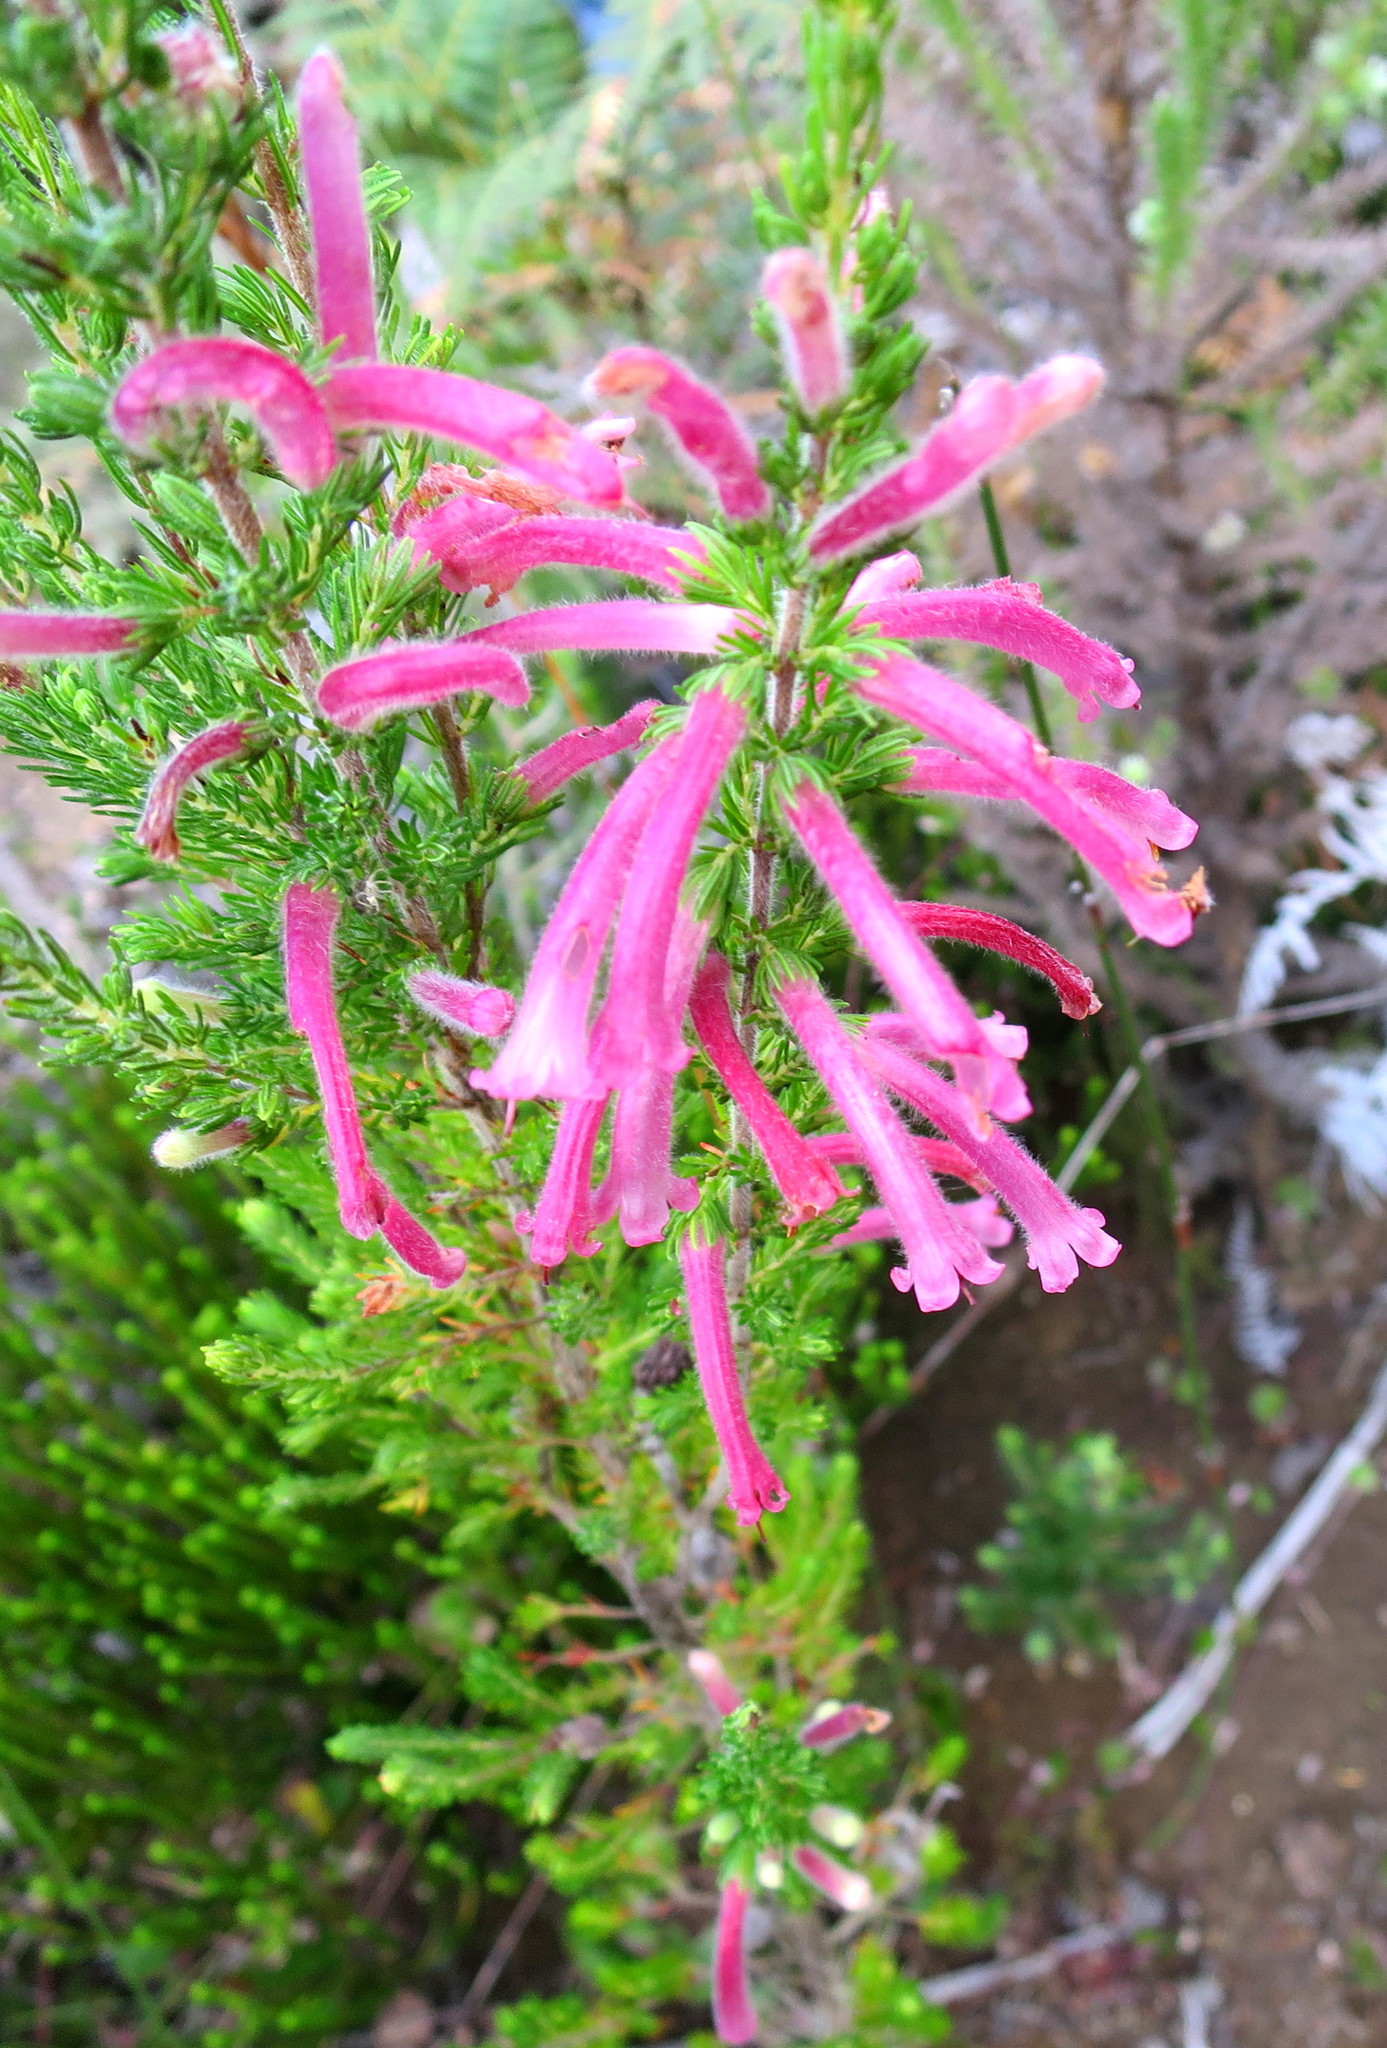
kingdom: Plantae
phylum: Tracheophyta
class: Magnoliopsida
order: Ericales
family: Ericaceae
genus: Erica
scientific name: Erica curviflora
